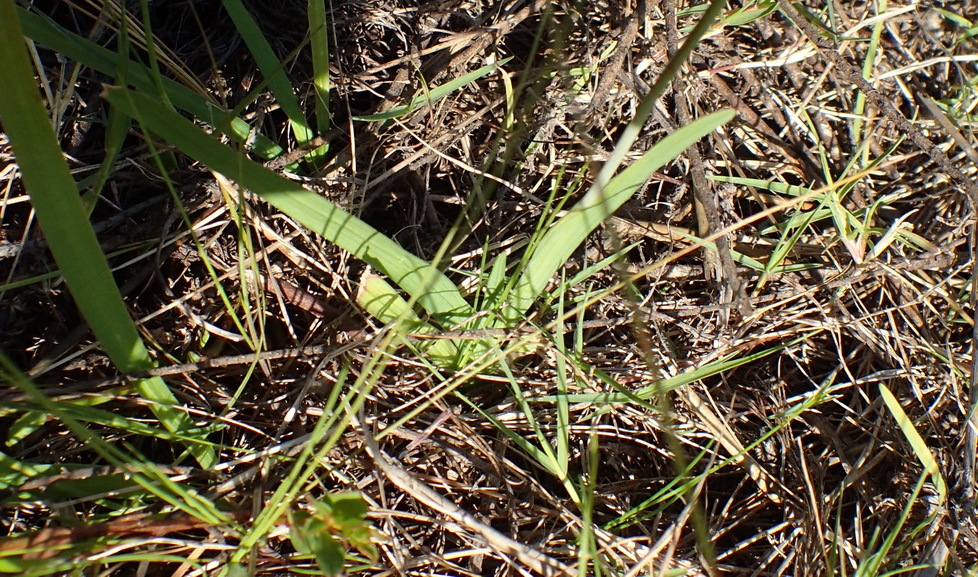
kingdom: Plantae
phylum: Tracheophyta
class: Liliopsida
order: Asparagales
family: Iridaceae
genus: Hesperantha
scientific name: Hesperantha falcata
